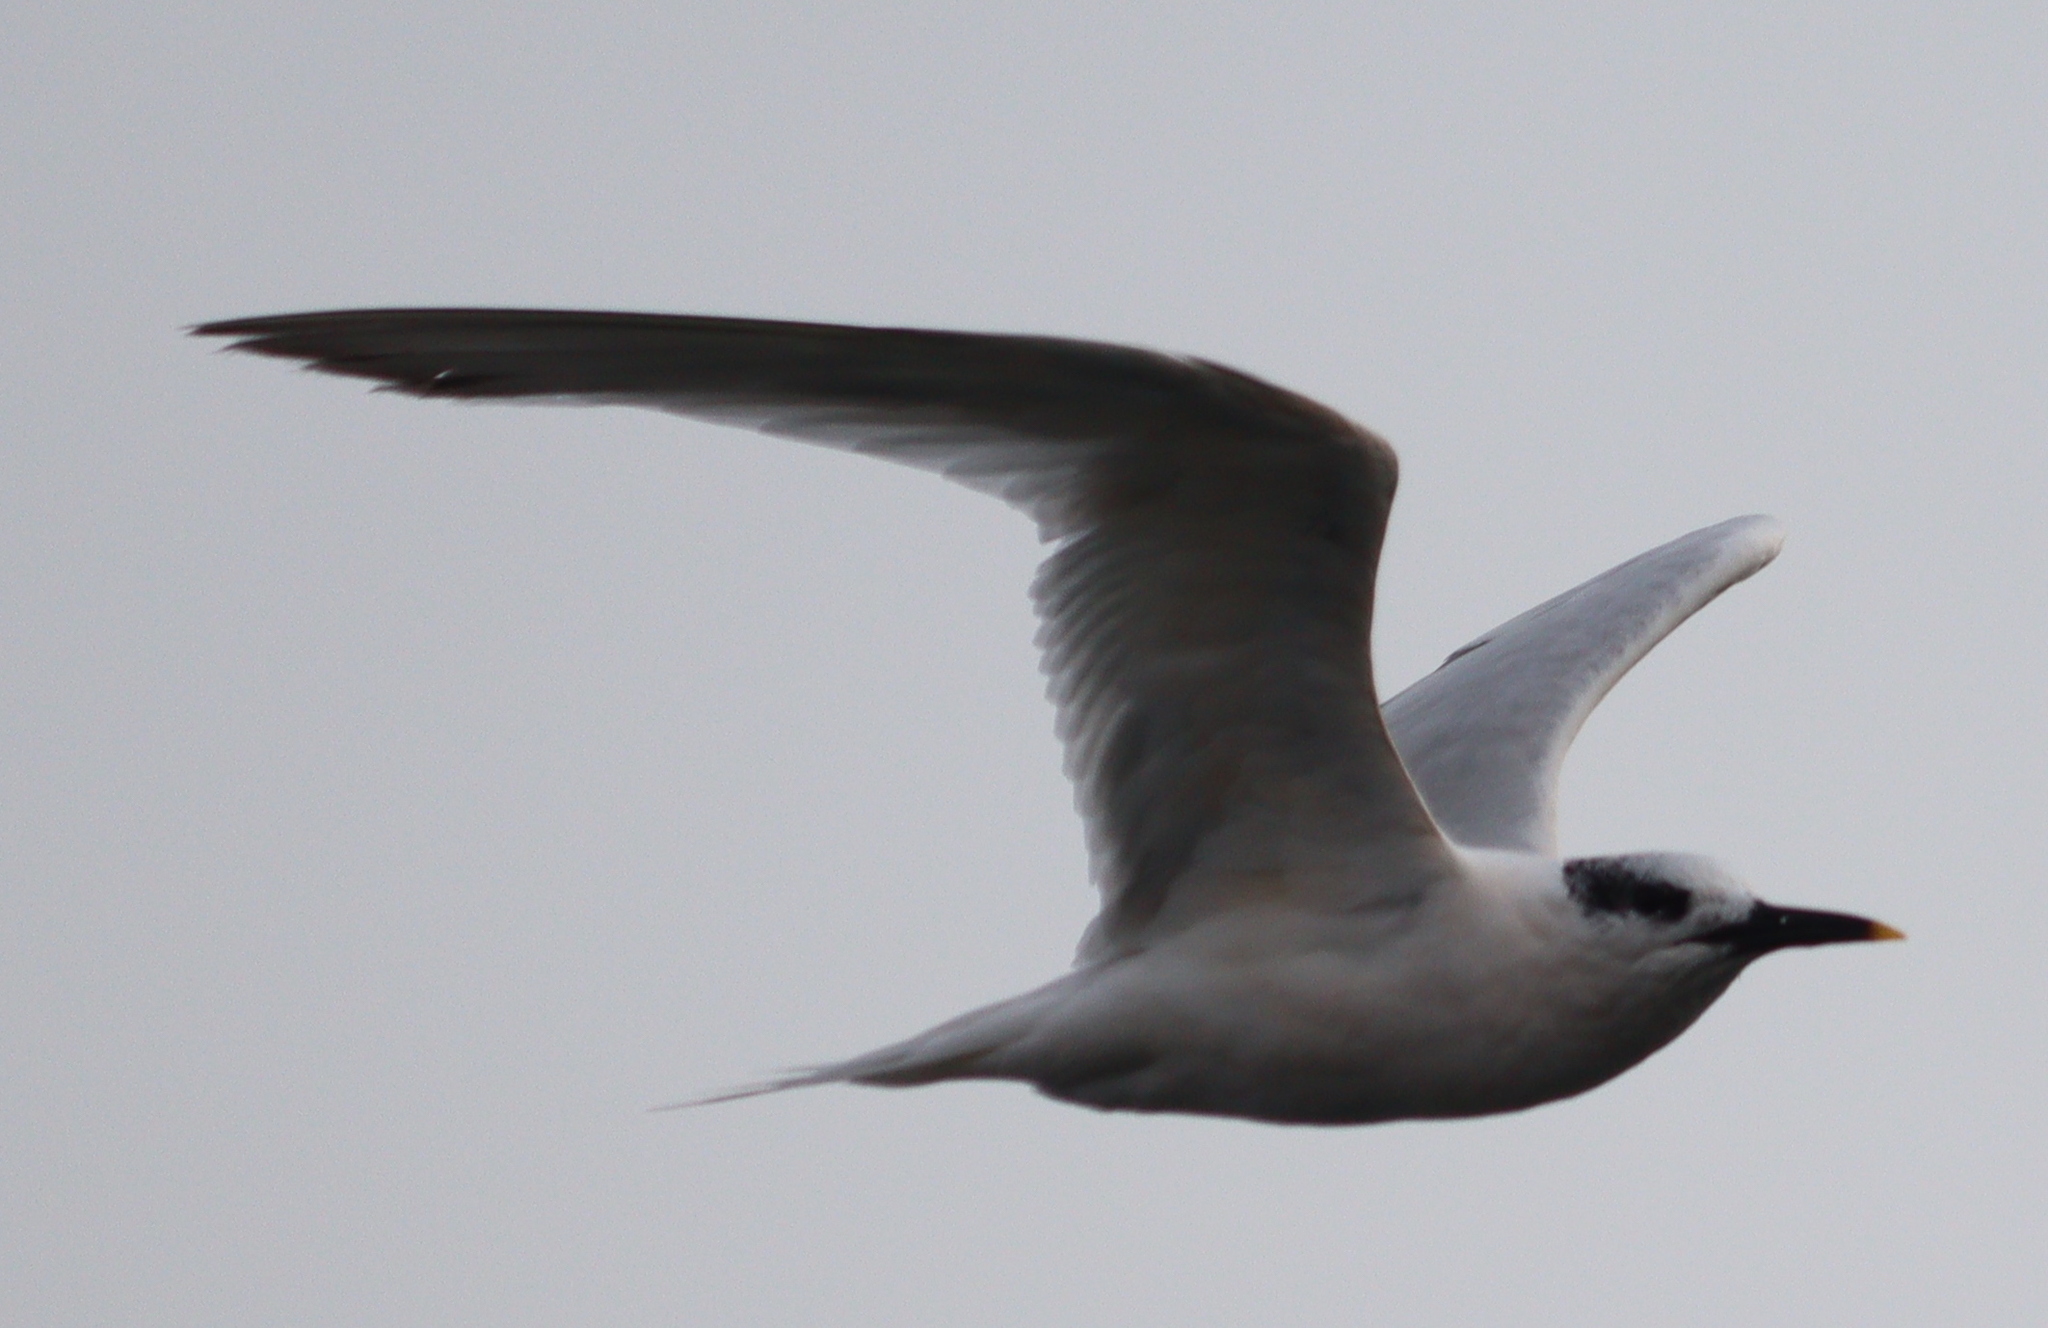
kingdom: Animalia
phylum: Chordata
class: Aves
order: Charadriiformes
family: Laridae
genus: Thalasseus
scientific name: Thalasseus sandvicensis
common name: Sandwich tern
